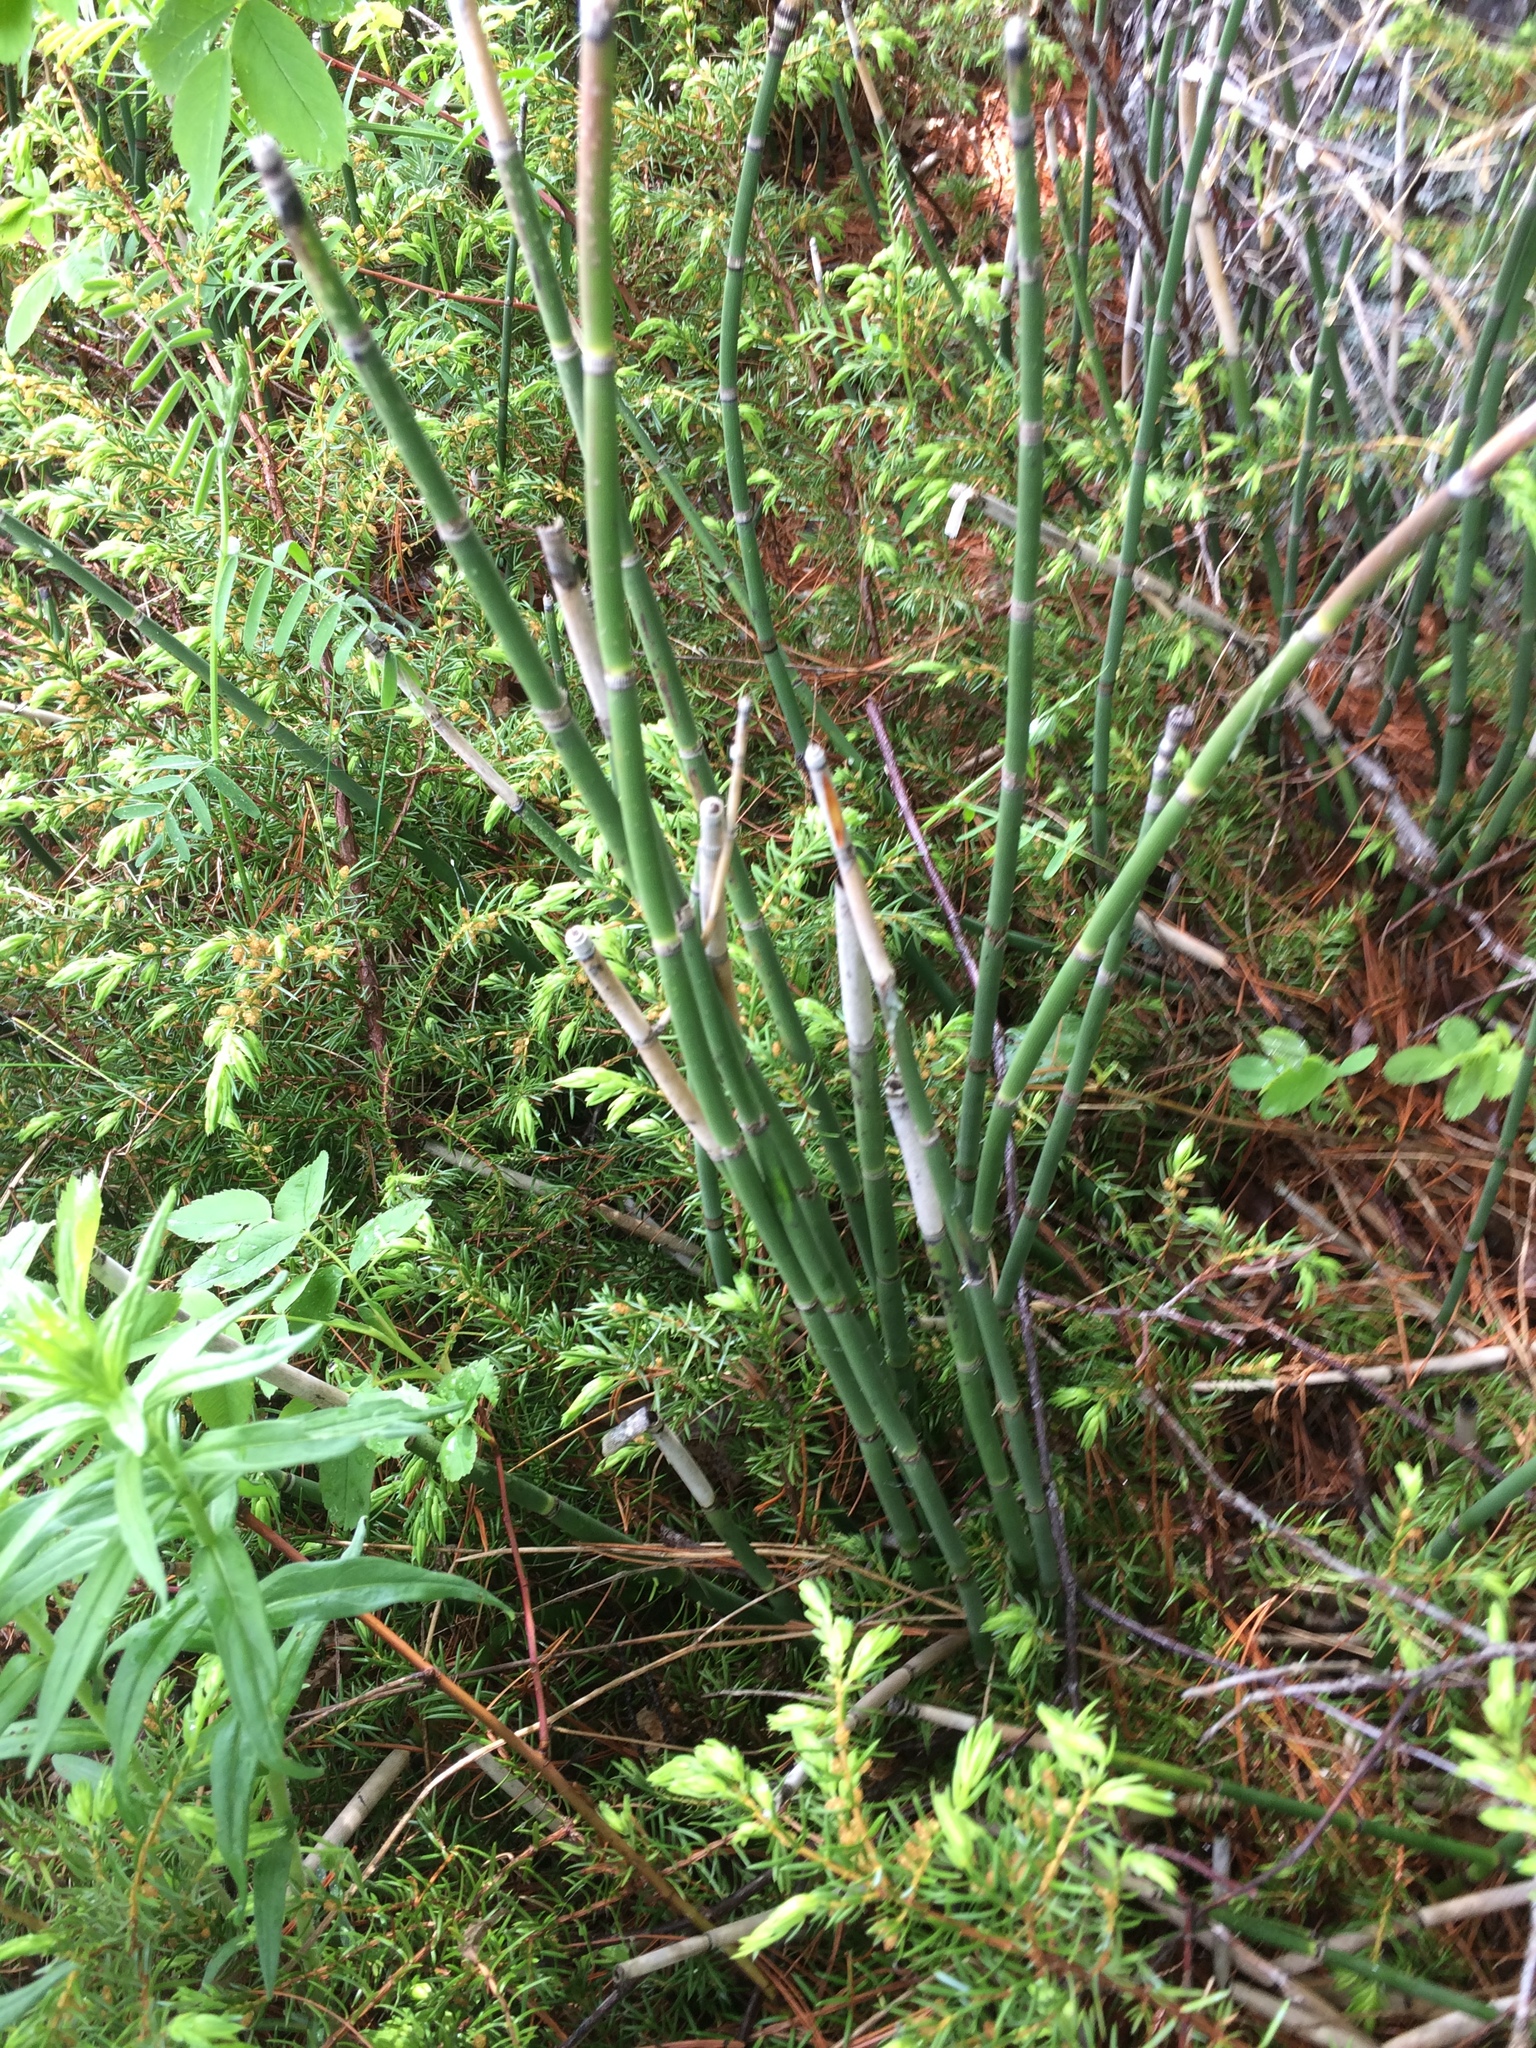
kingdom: Plantae
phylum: Tracheophyta
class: Polypodiopsida
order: Equisetales
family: Equisetaceae
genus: Equisetum
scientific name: Equisetum praealtum
